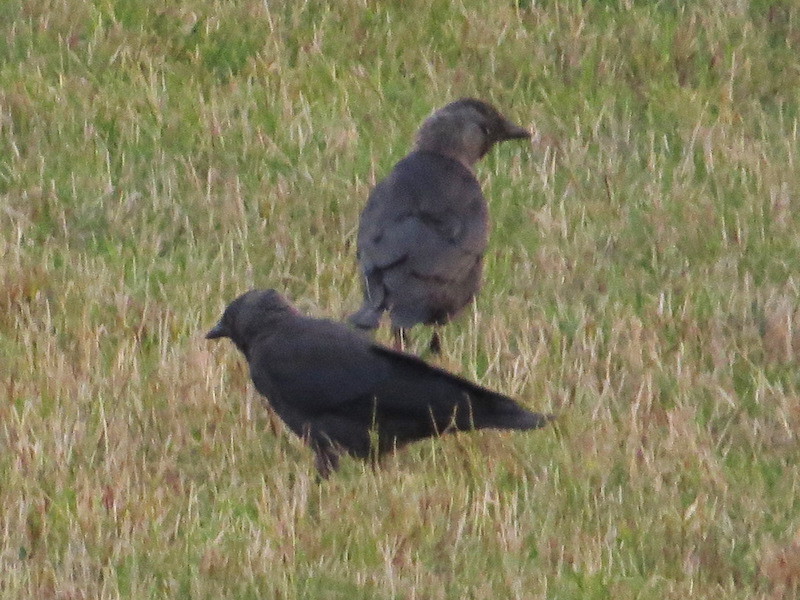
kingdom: Animalia
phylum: Chordata
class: Aves
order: Passeriformes
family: Corvidae
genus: Coloeus
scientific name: Coloeus monedula
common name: Western jackdaw
